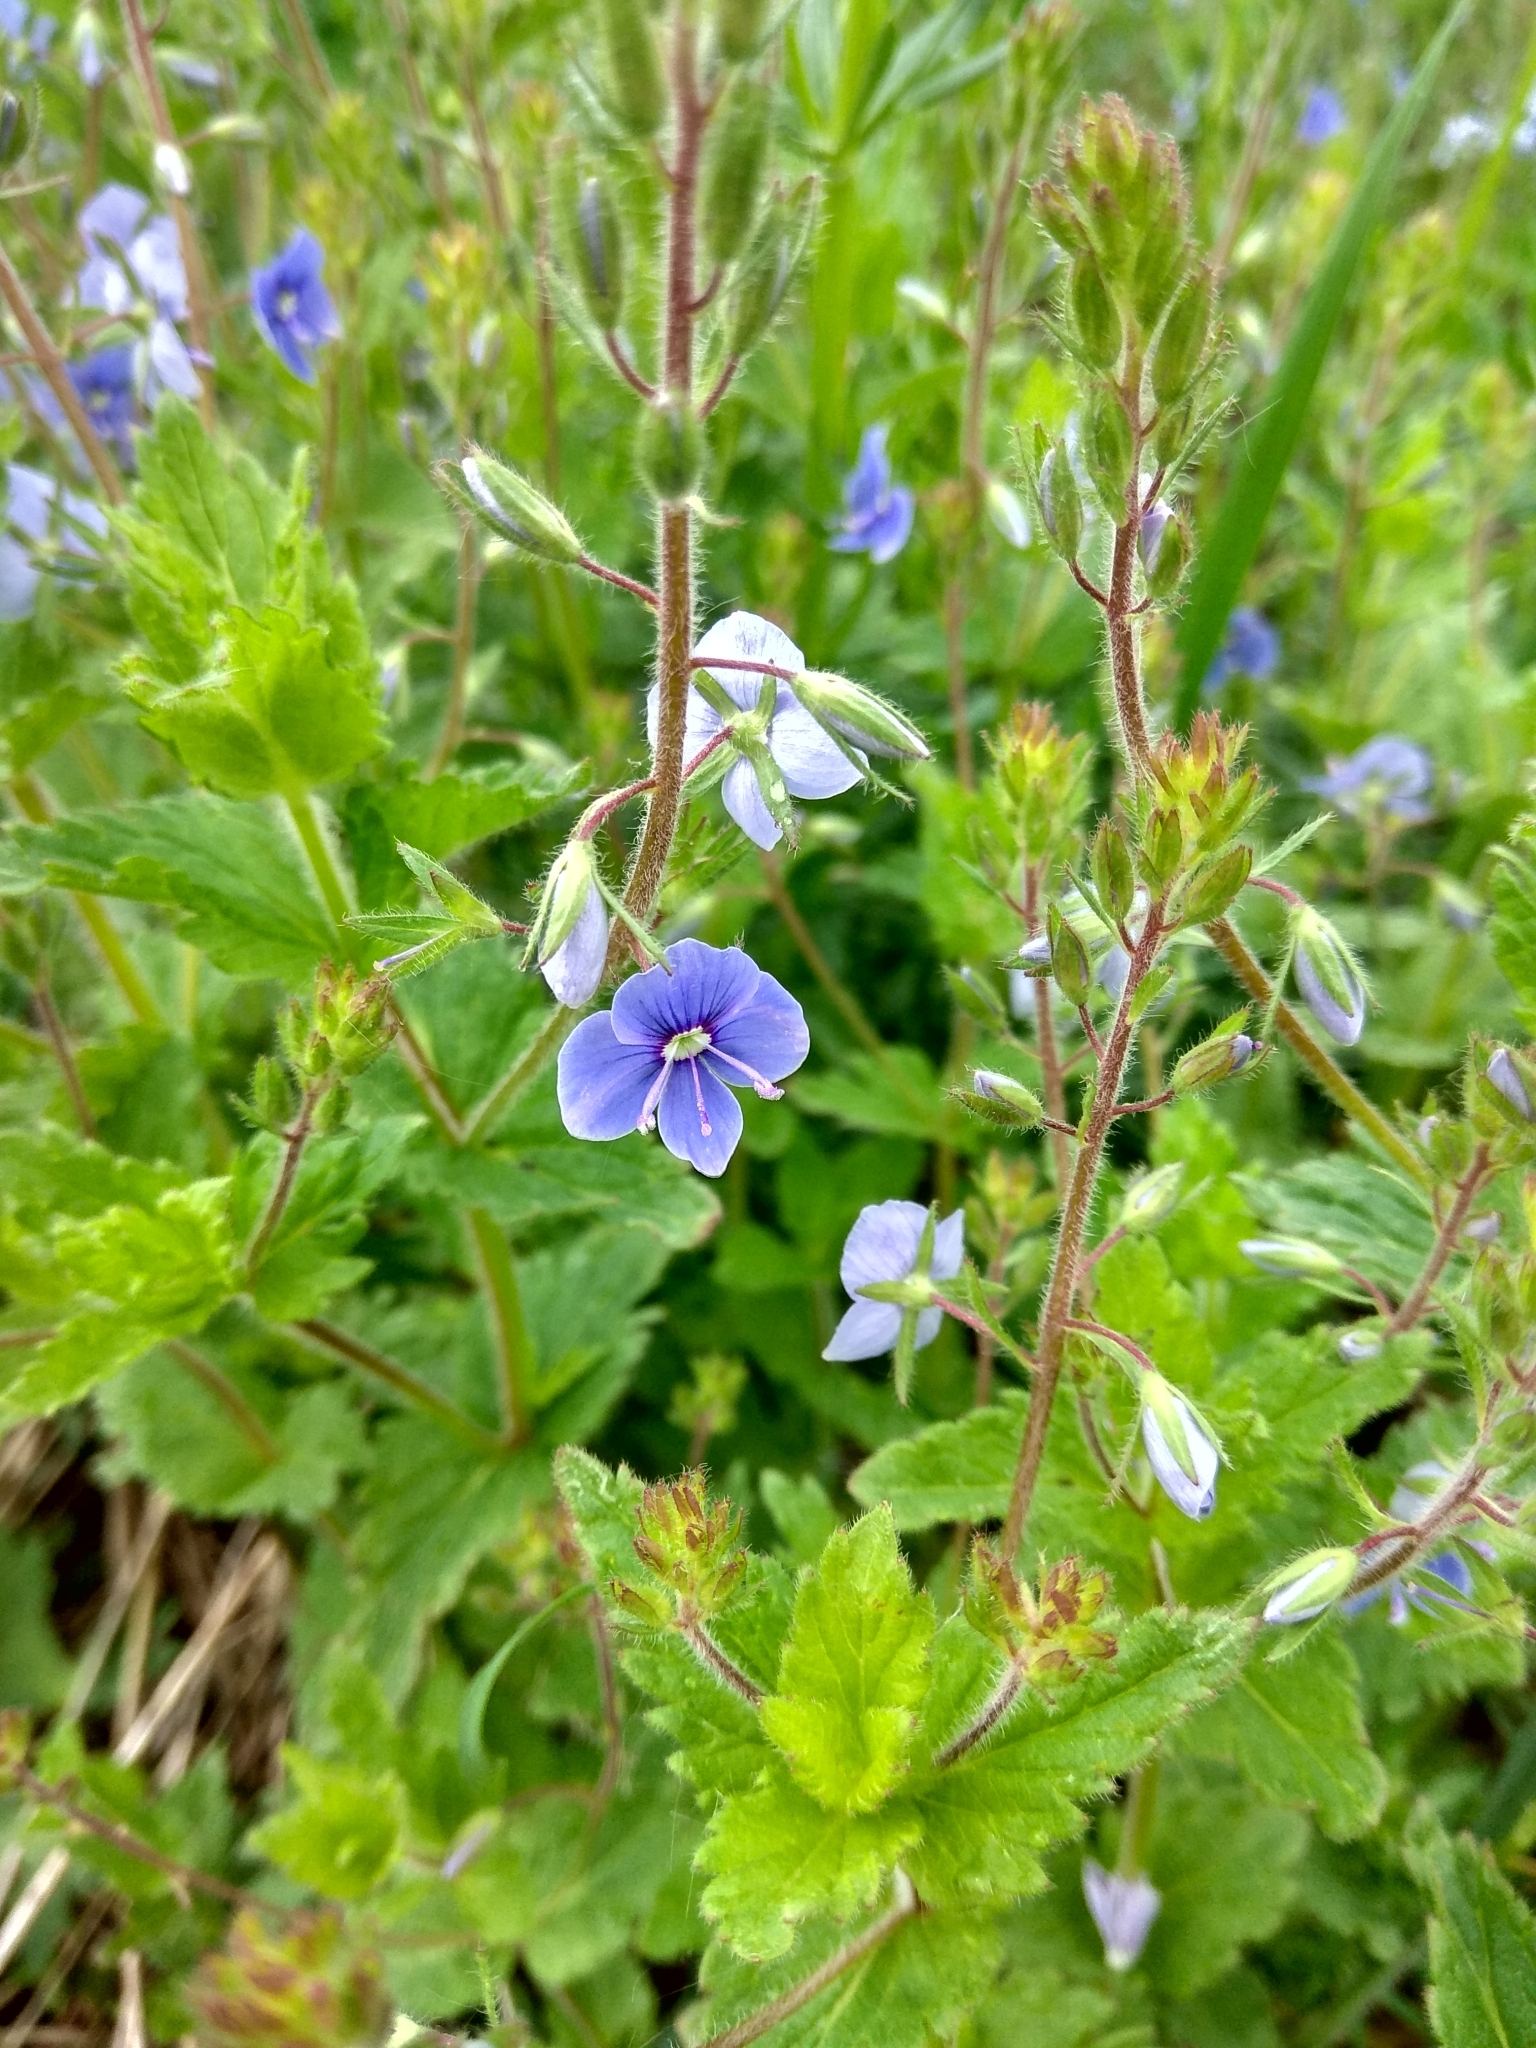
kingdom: Plantae
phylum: Tracheophyta
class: Magnoliopsida
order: Lamiales
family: Plantaginaceae
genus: Veronica
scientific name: Veronica chamaedrys
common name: Germander speedwell
